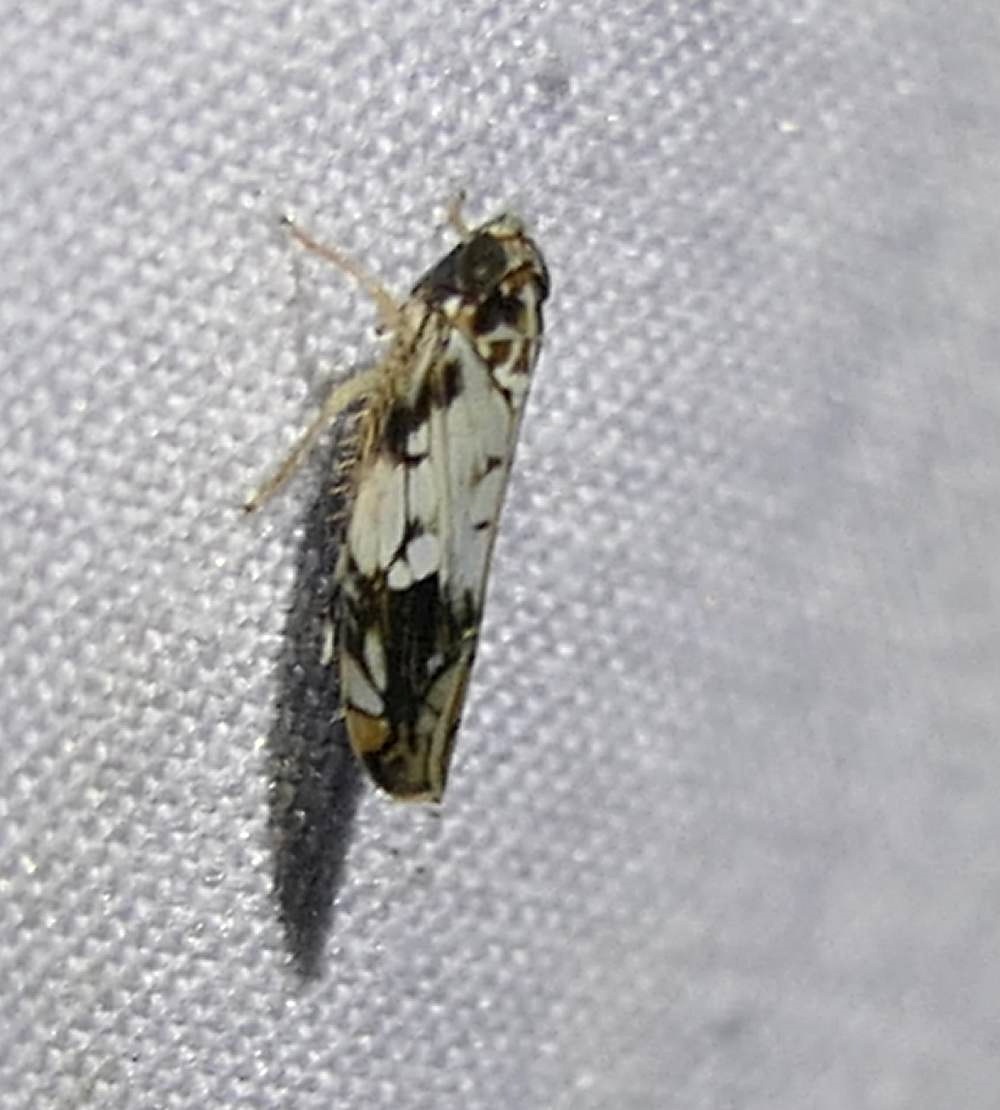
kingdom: Animalia
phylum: Arthropoda
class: Insecta
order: Hemiptera
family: Cicadellidae
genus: Scaphoideus
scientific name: Scaphoideus obtusus
